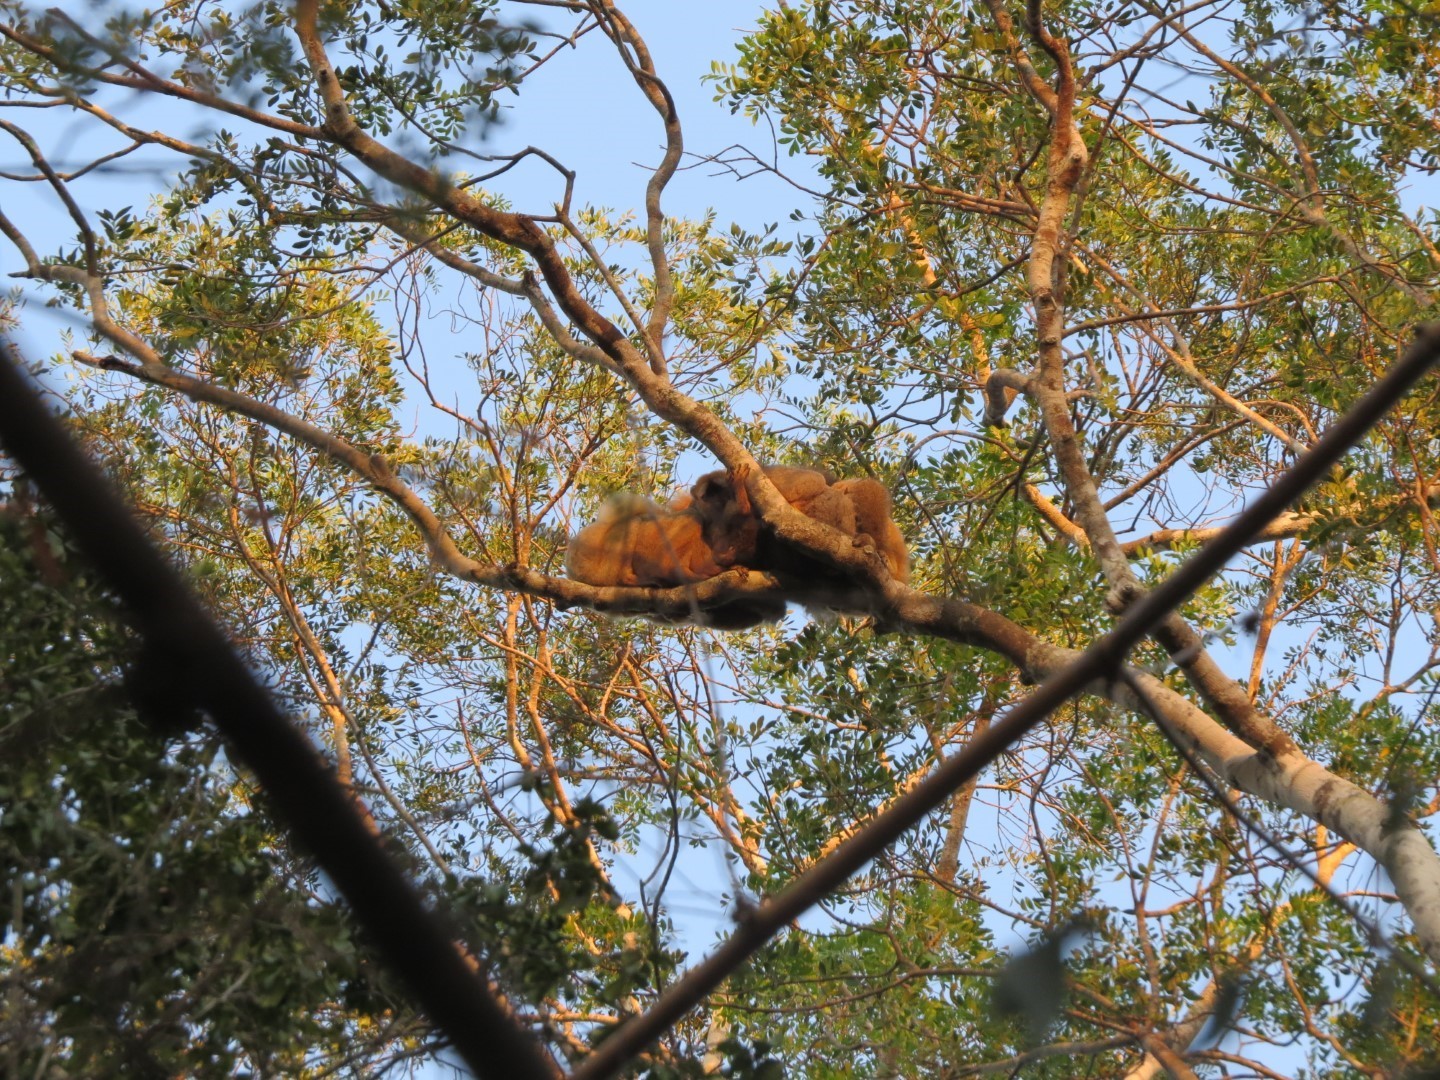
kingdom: Animalia
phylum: Chordata
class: Mammalia
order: Primates
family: Lemuridae
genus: Eulemur
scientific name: Eulemur rufifrons
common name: Red-fronted brown lemur
